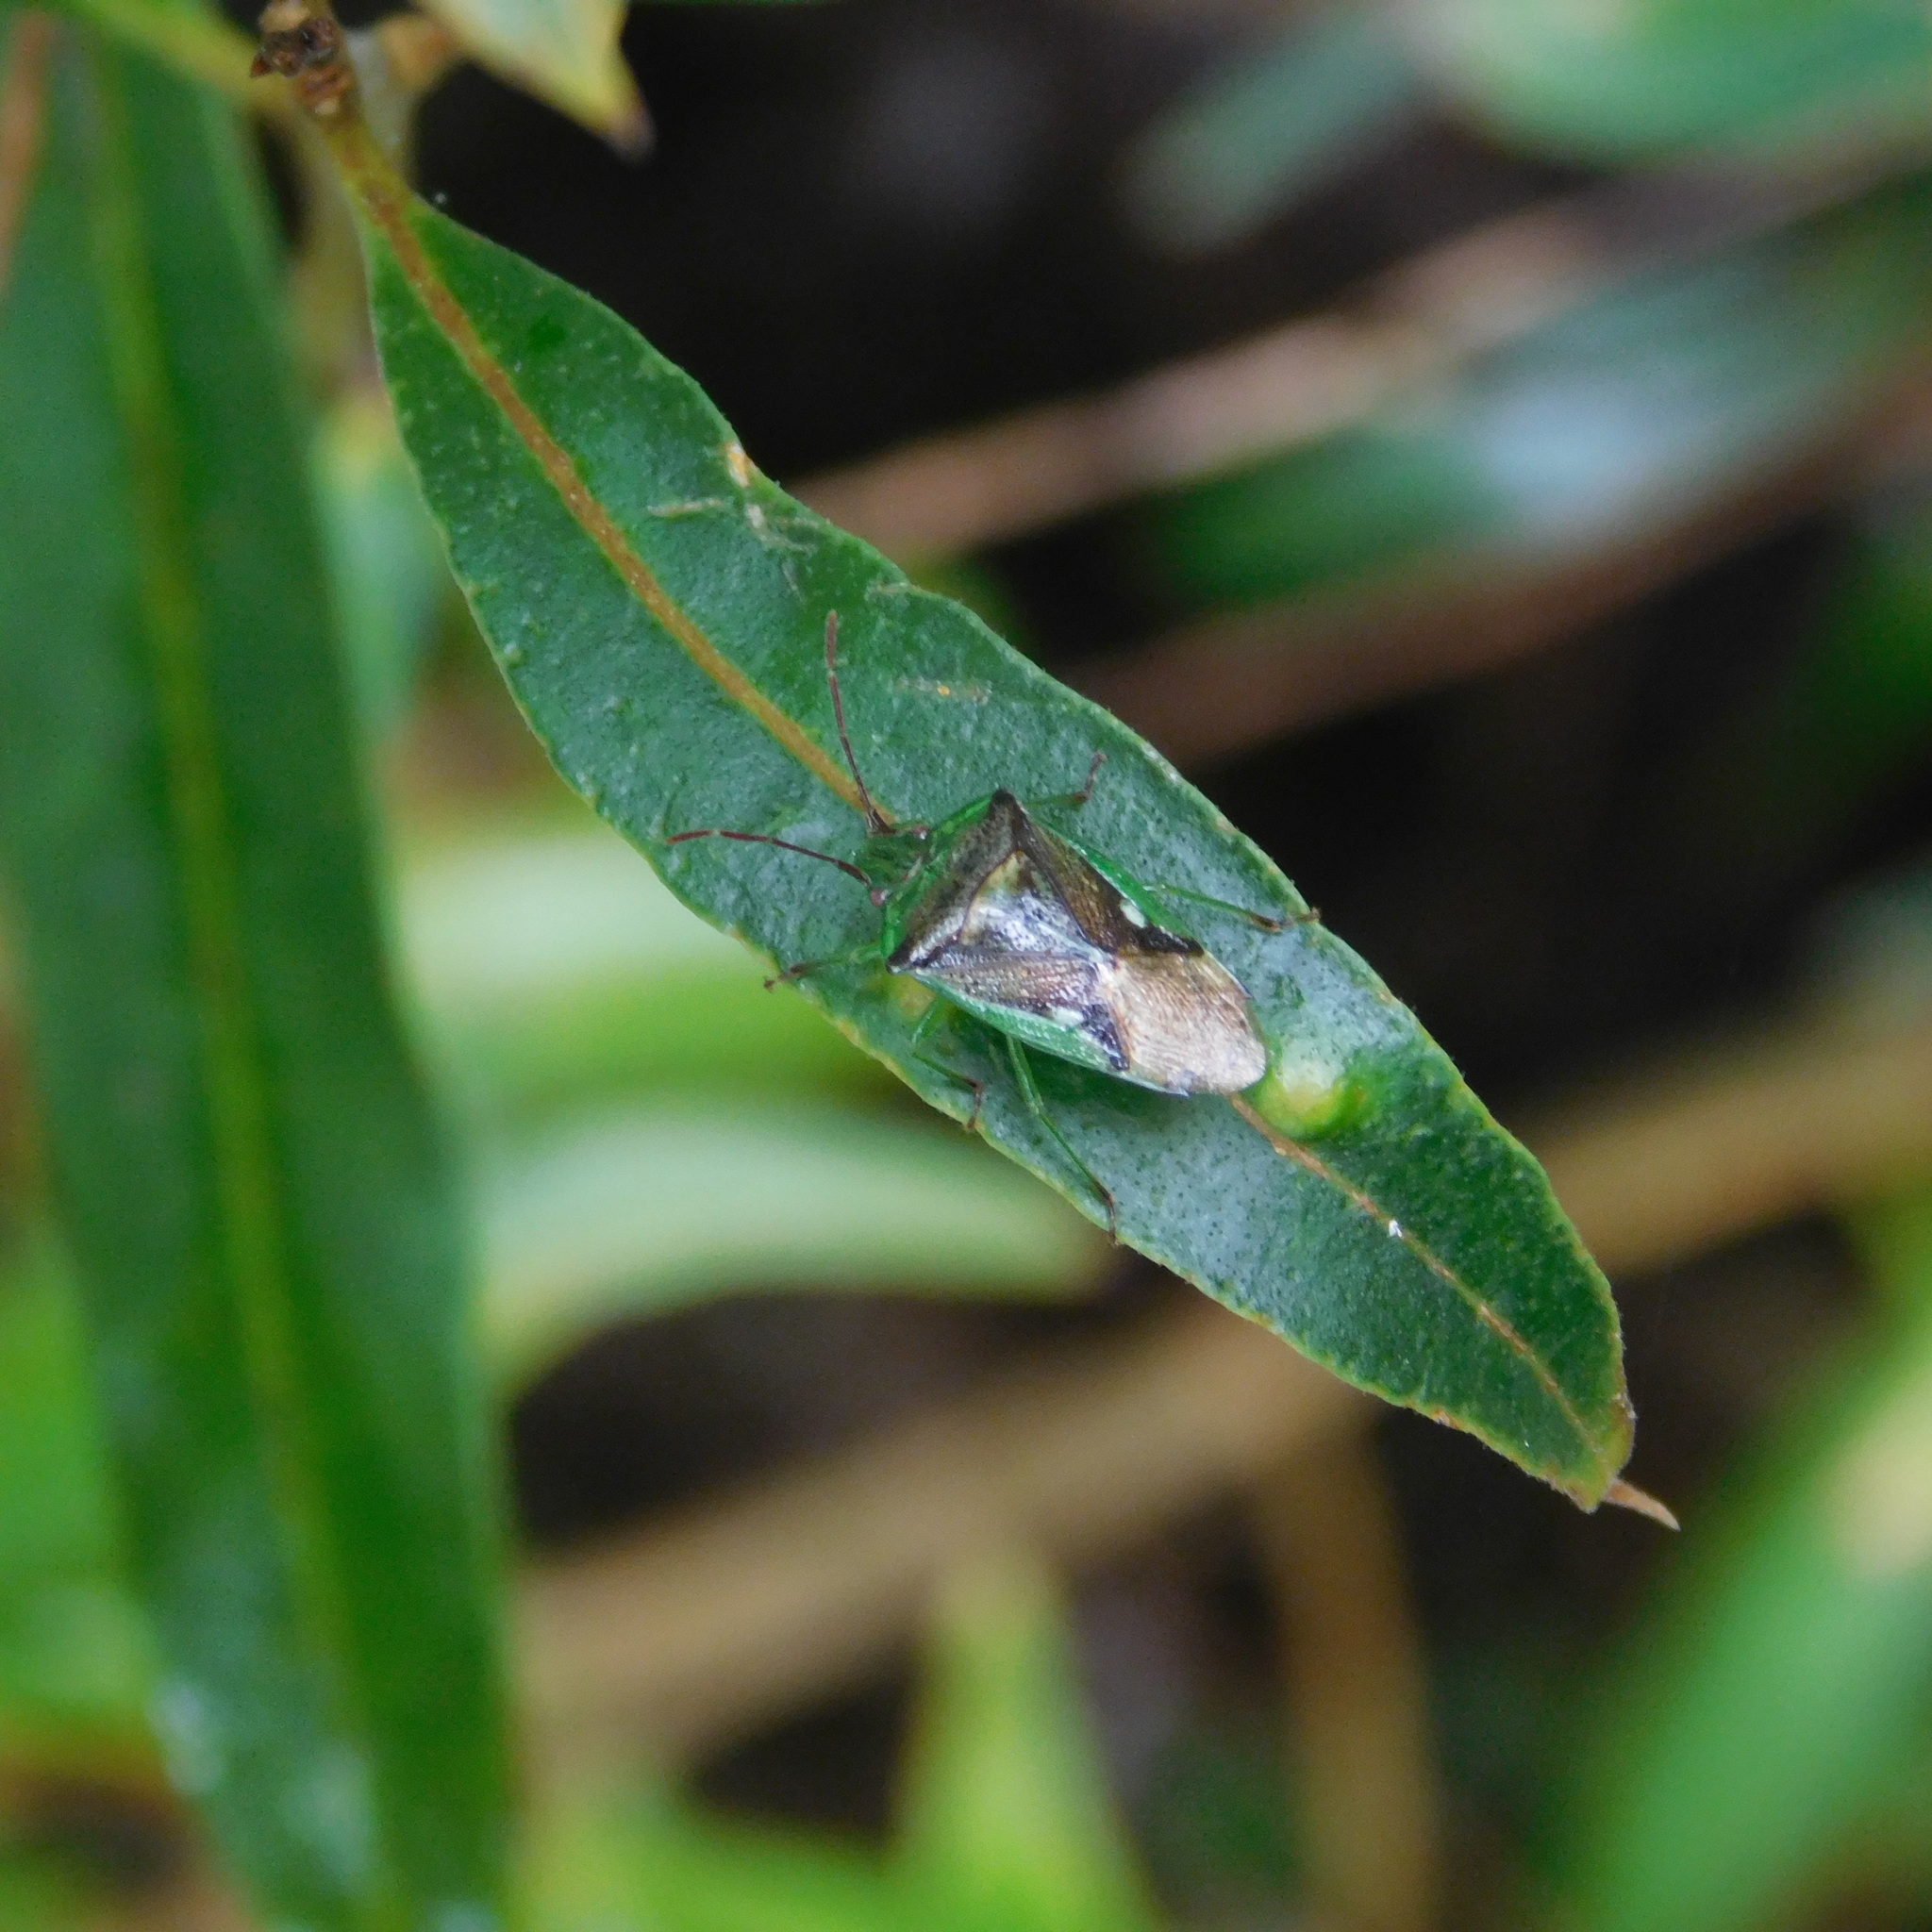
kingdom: Animalia
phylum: Arthropoda
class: Insecta
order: Hemiptera
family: Acanthosomatidae
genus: Oncacontias
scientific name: Oncacontias vittatus
